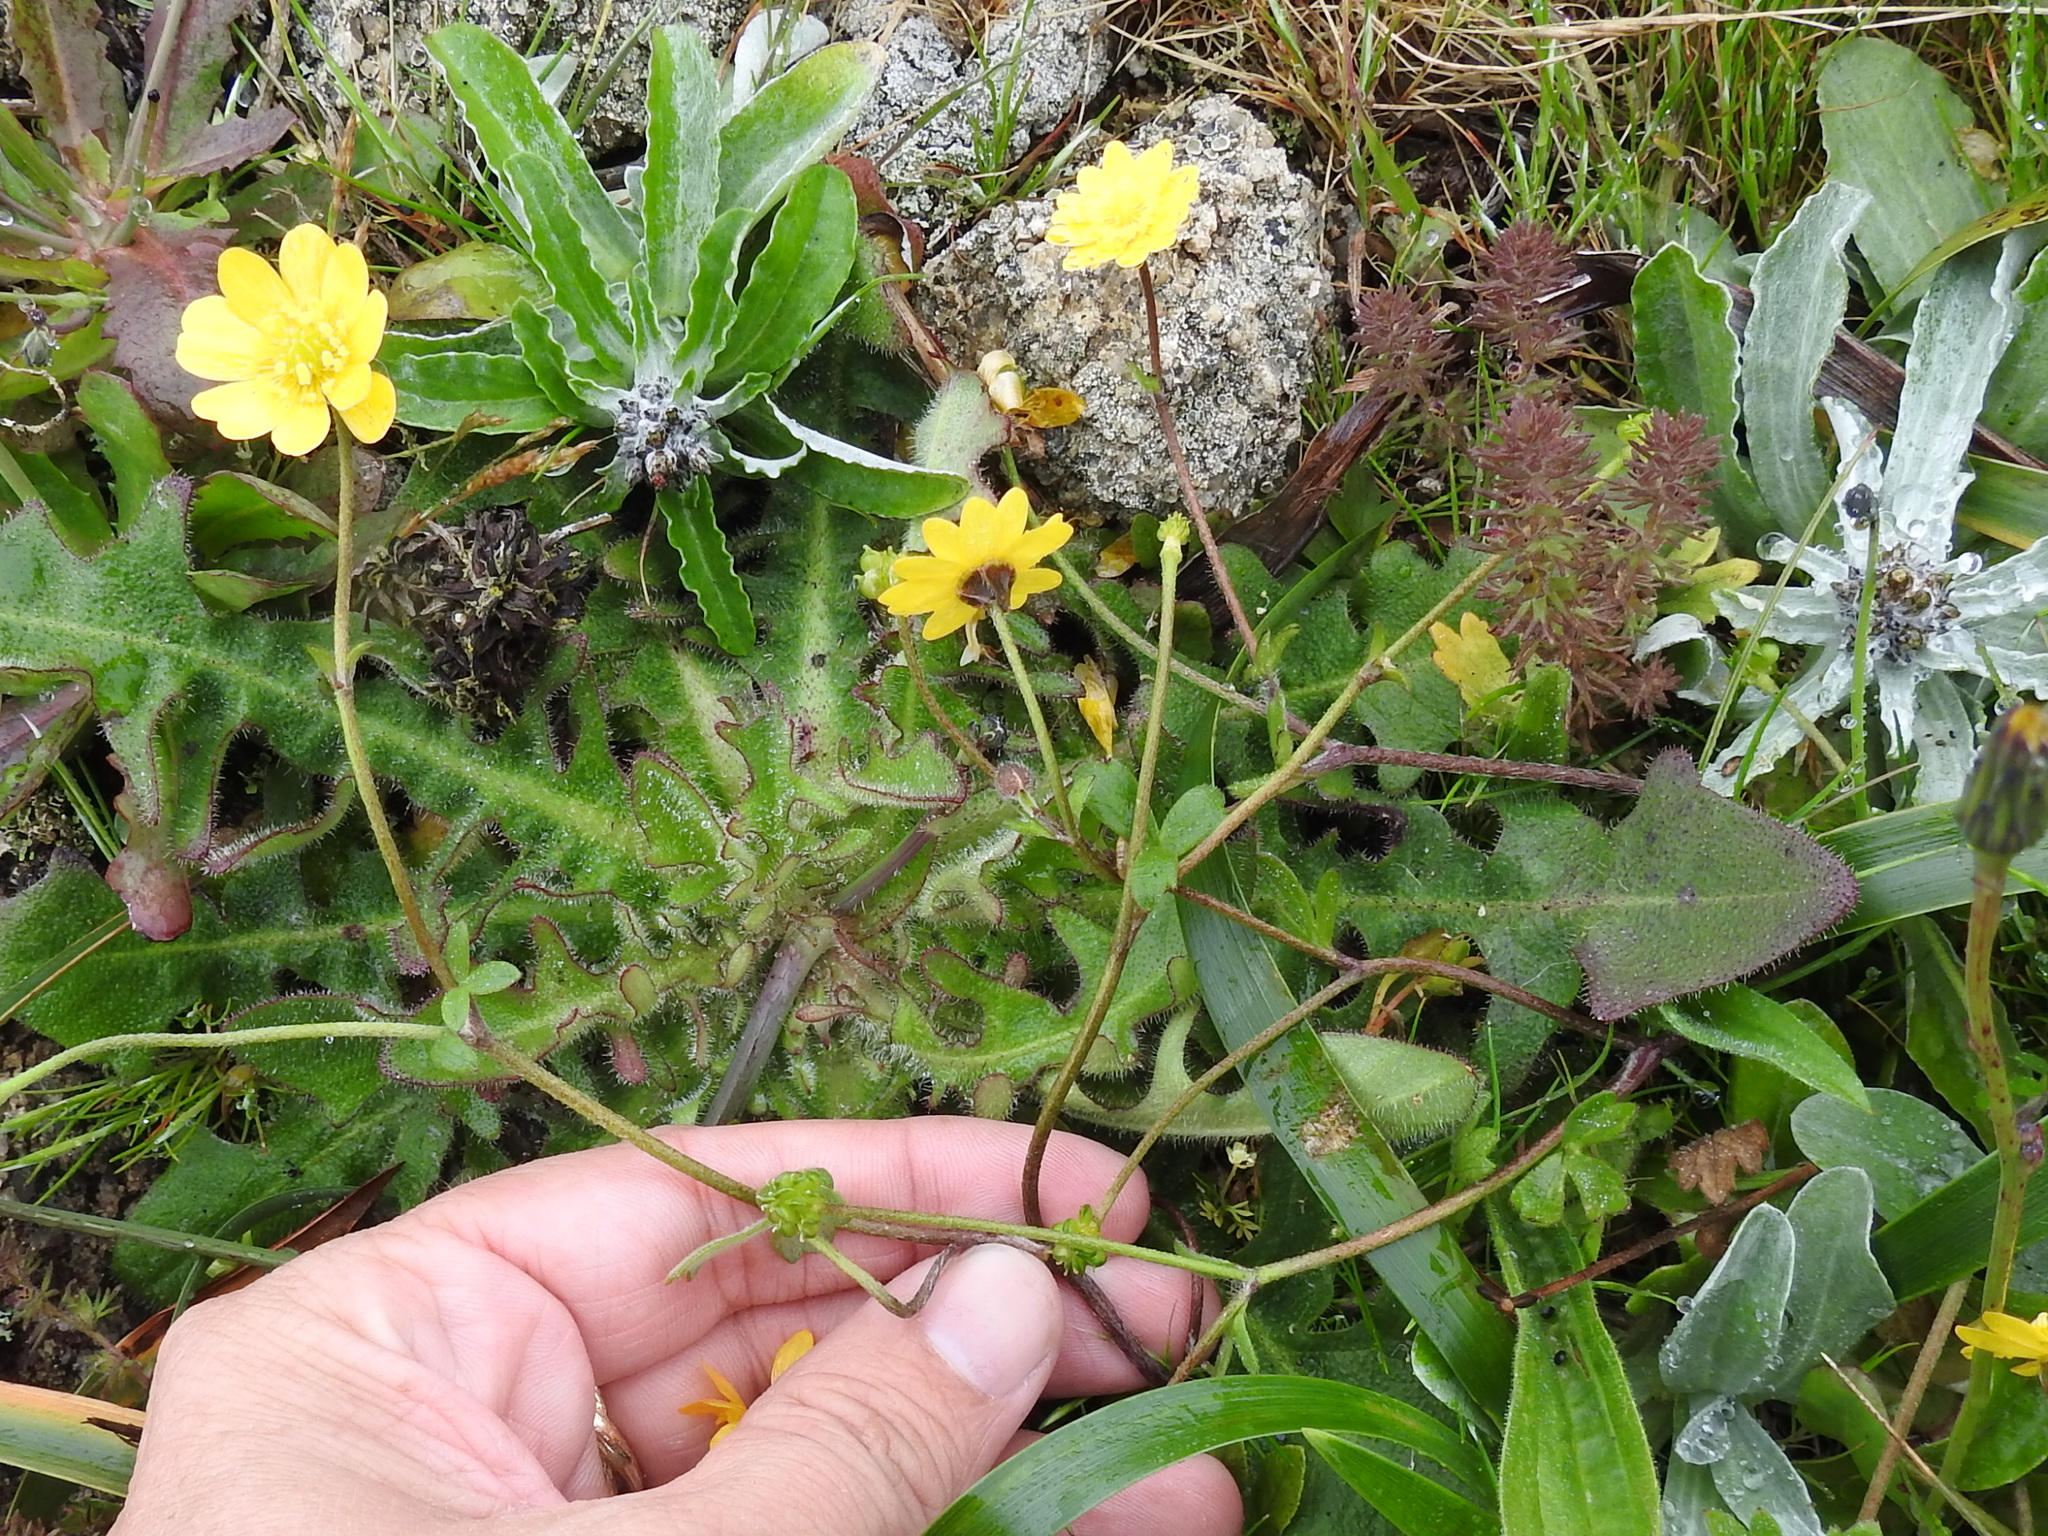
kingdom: Plantae
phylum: Tracheophyta
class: Magnoliopsida
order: Ranunculales
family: Ranunculaceae
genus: Ranunculus
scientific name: Ranunculus californicus
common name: California buttercup
